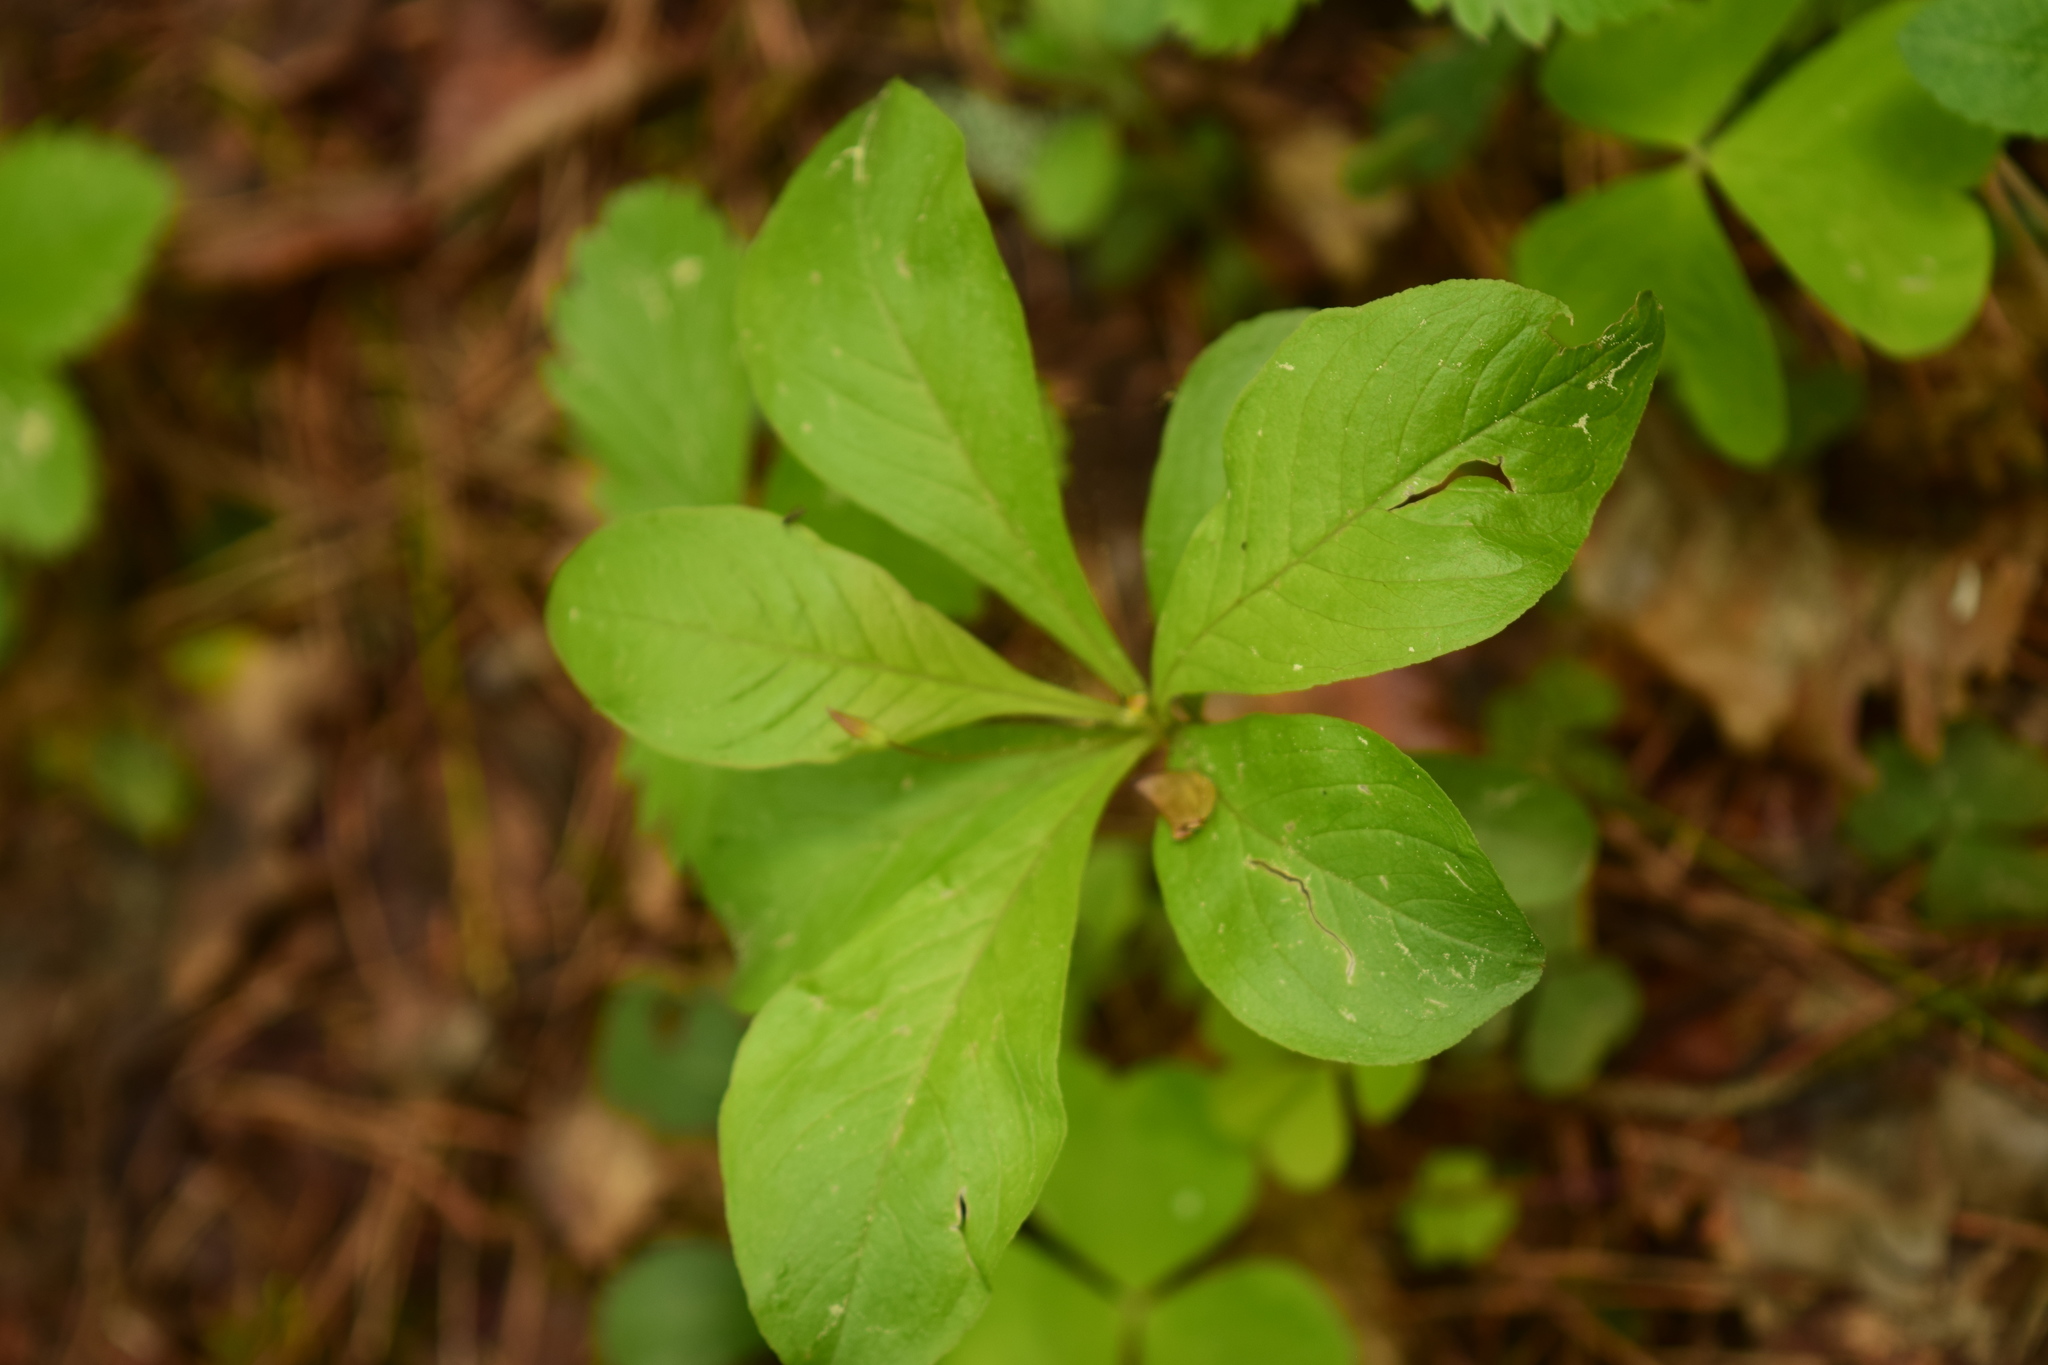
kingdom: Plantae
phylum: Tracheophyta
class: Magnoliopsida
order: Ericales
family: Primulaceae
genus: Lysimachia
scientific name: Lysimachia europaea
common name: Arctic starflower
